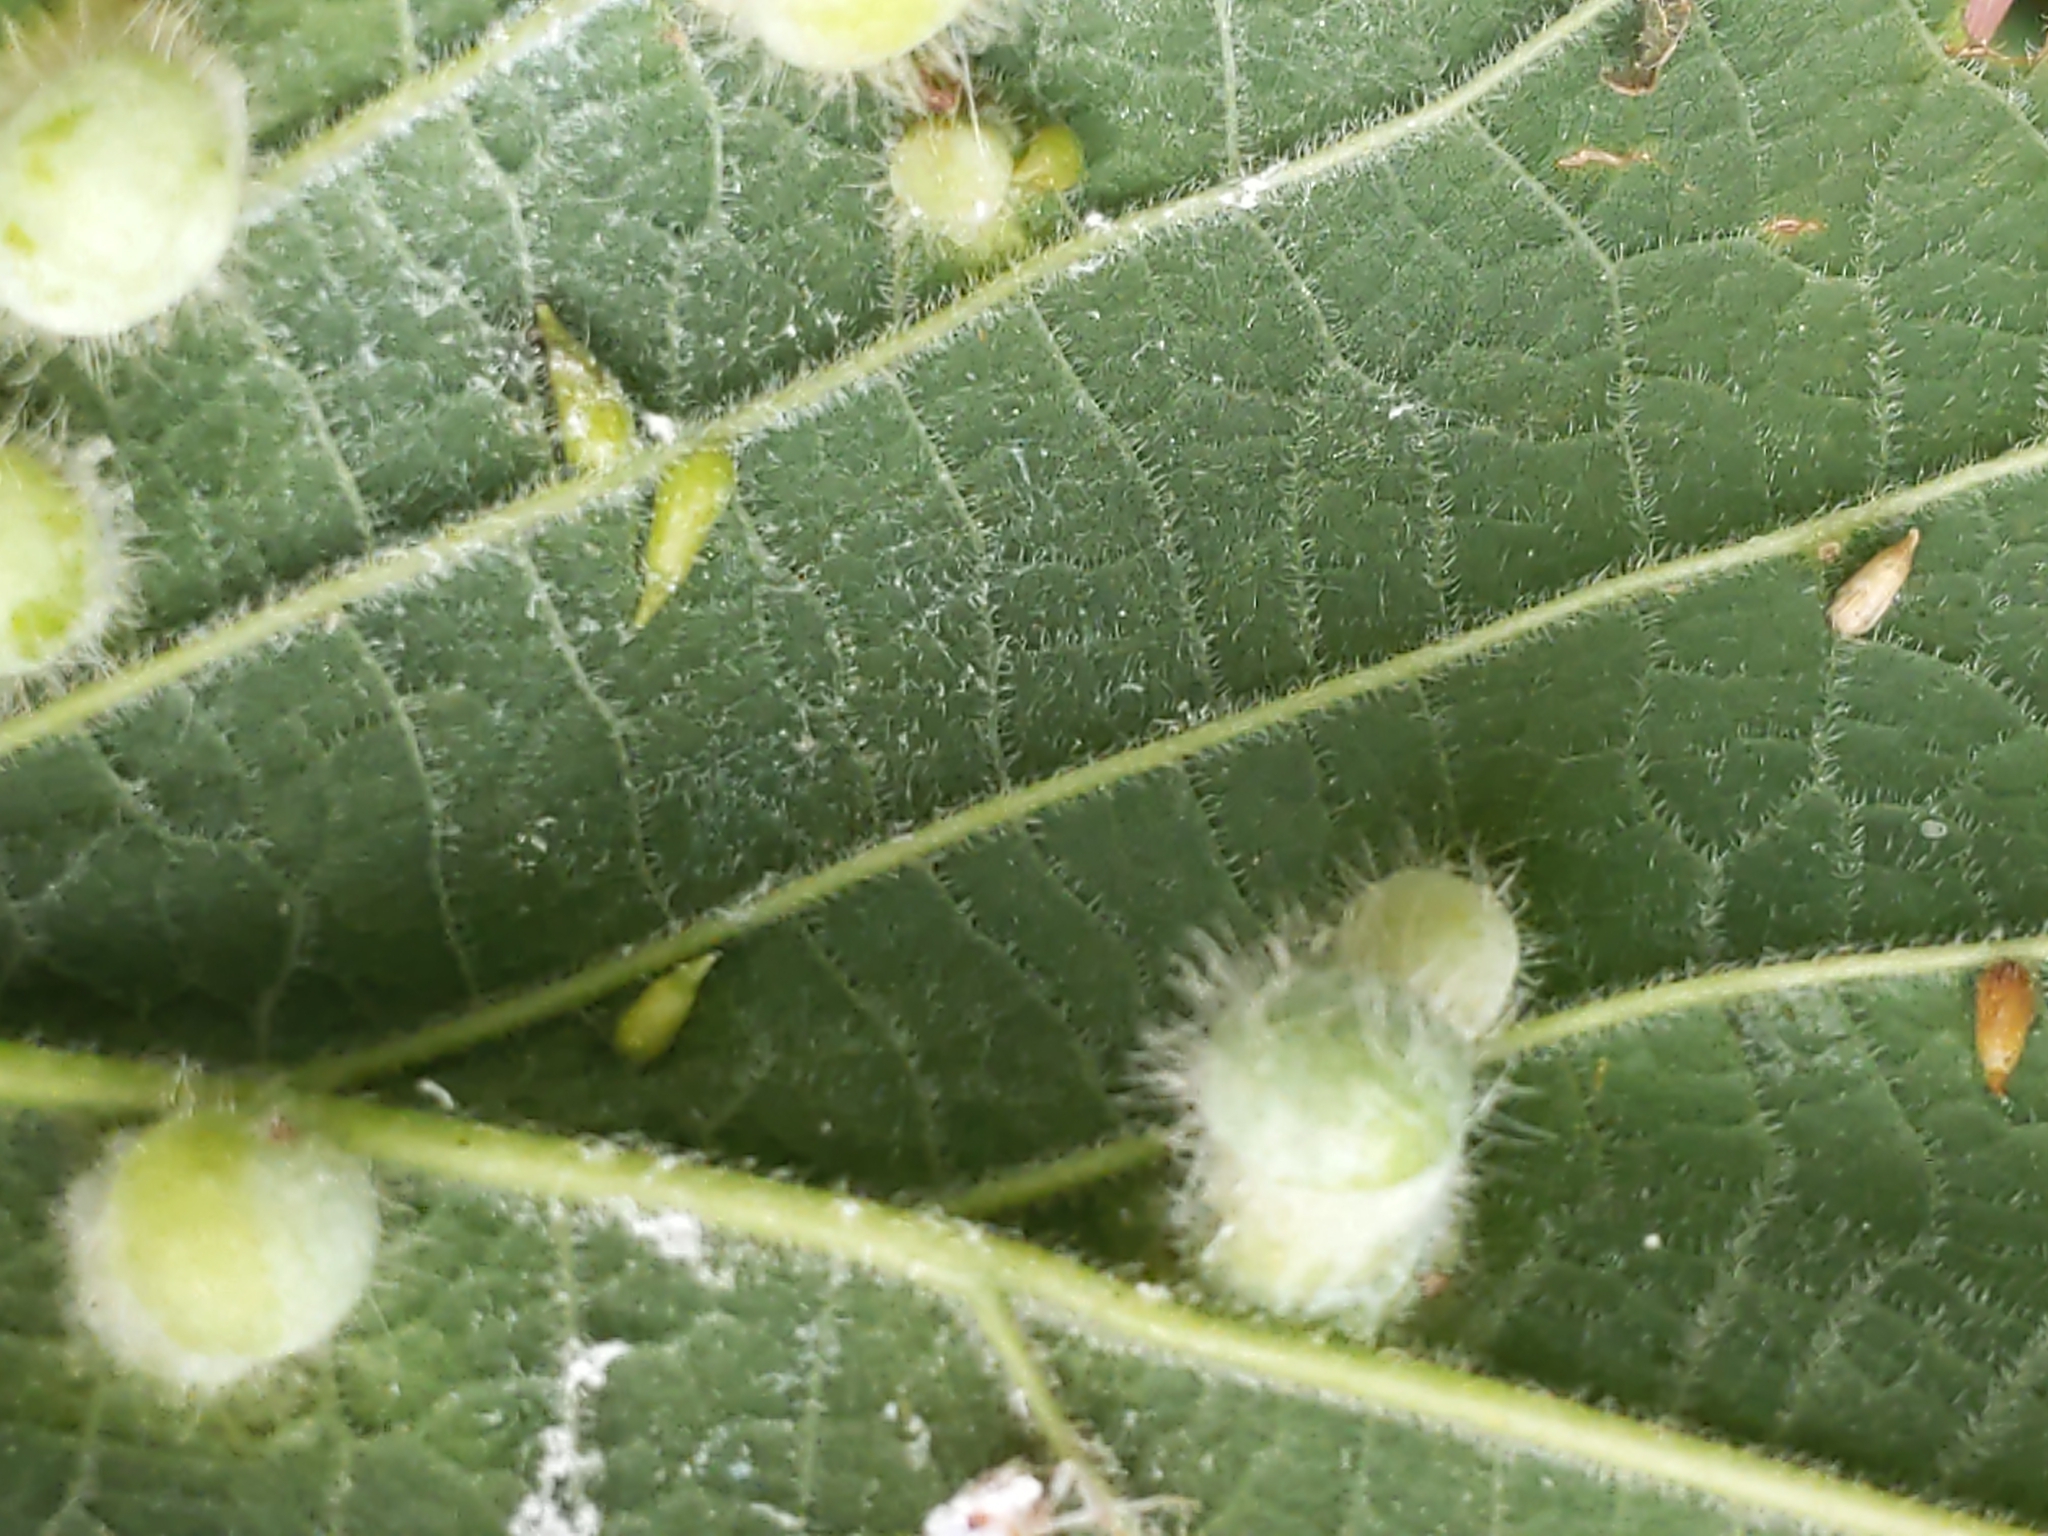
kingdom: Animalia
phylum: Arthropoda
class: Insecta
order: Diptera
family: Cecidomyiidae
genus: Celticecis
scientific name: Celticecis supina
